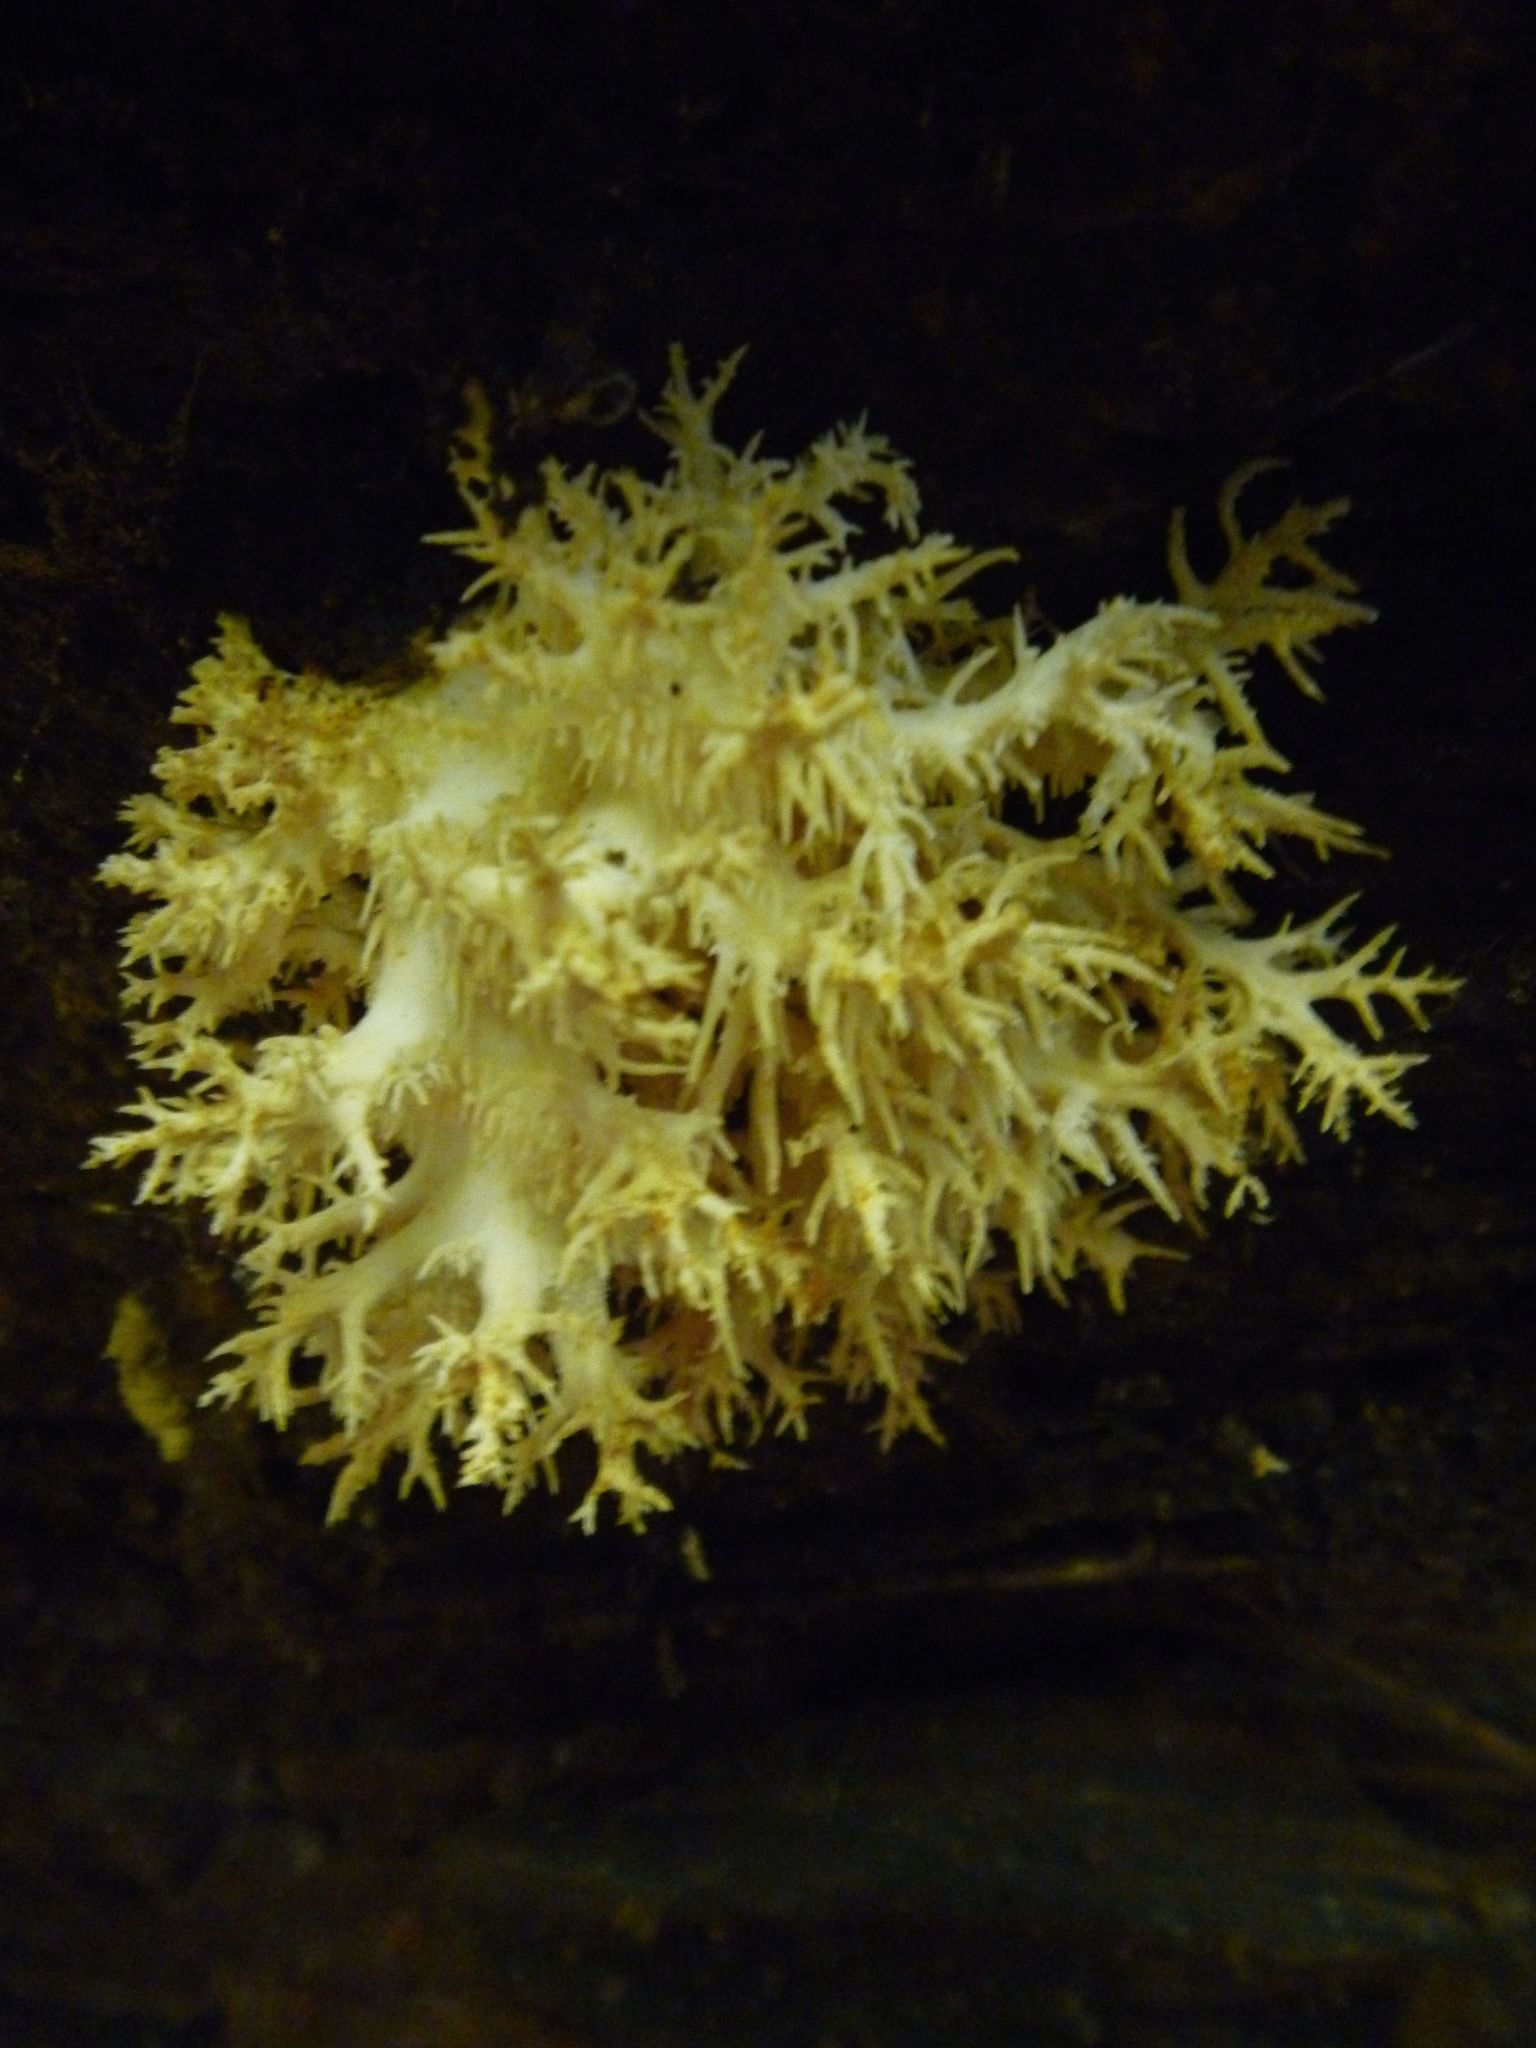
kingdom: Fungi
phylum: Basidiomycota
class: Agaricomycetes
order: Russulales
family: Hericiaceae
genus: Hericium
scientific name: Hericium novae-zealandiae
